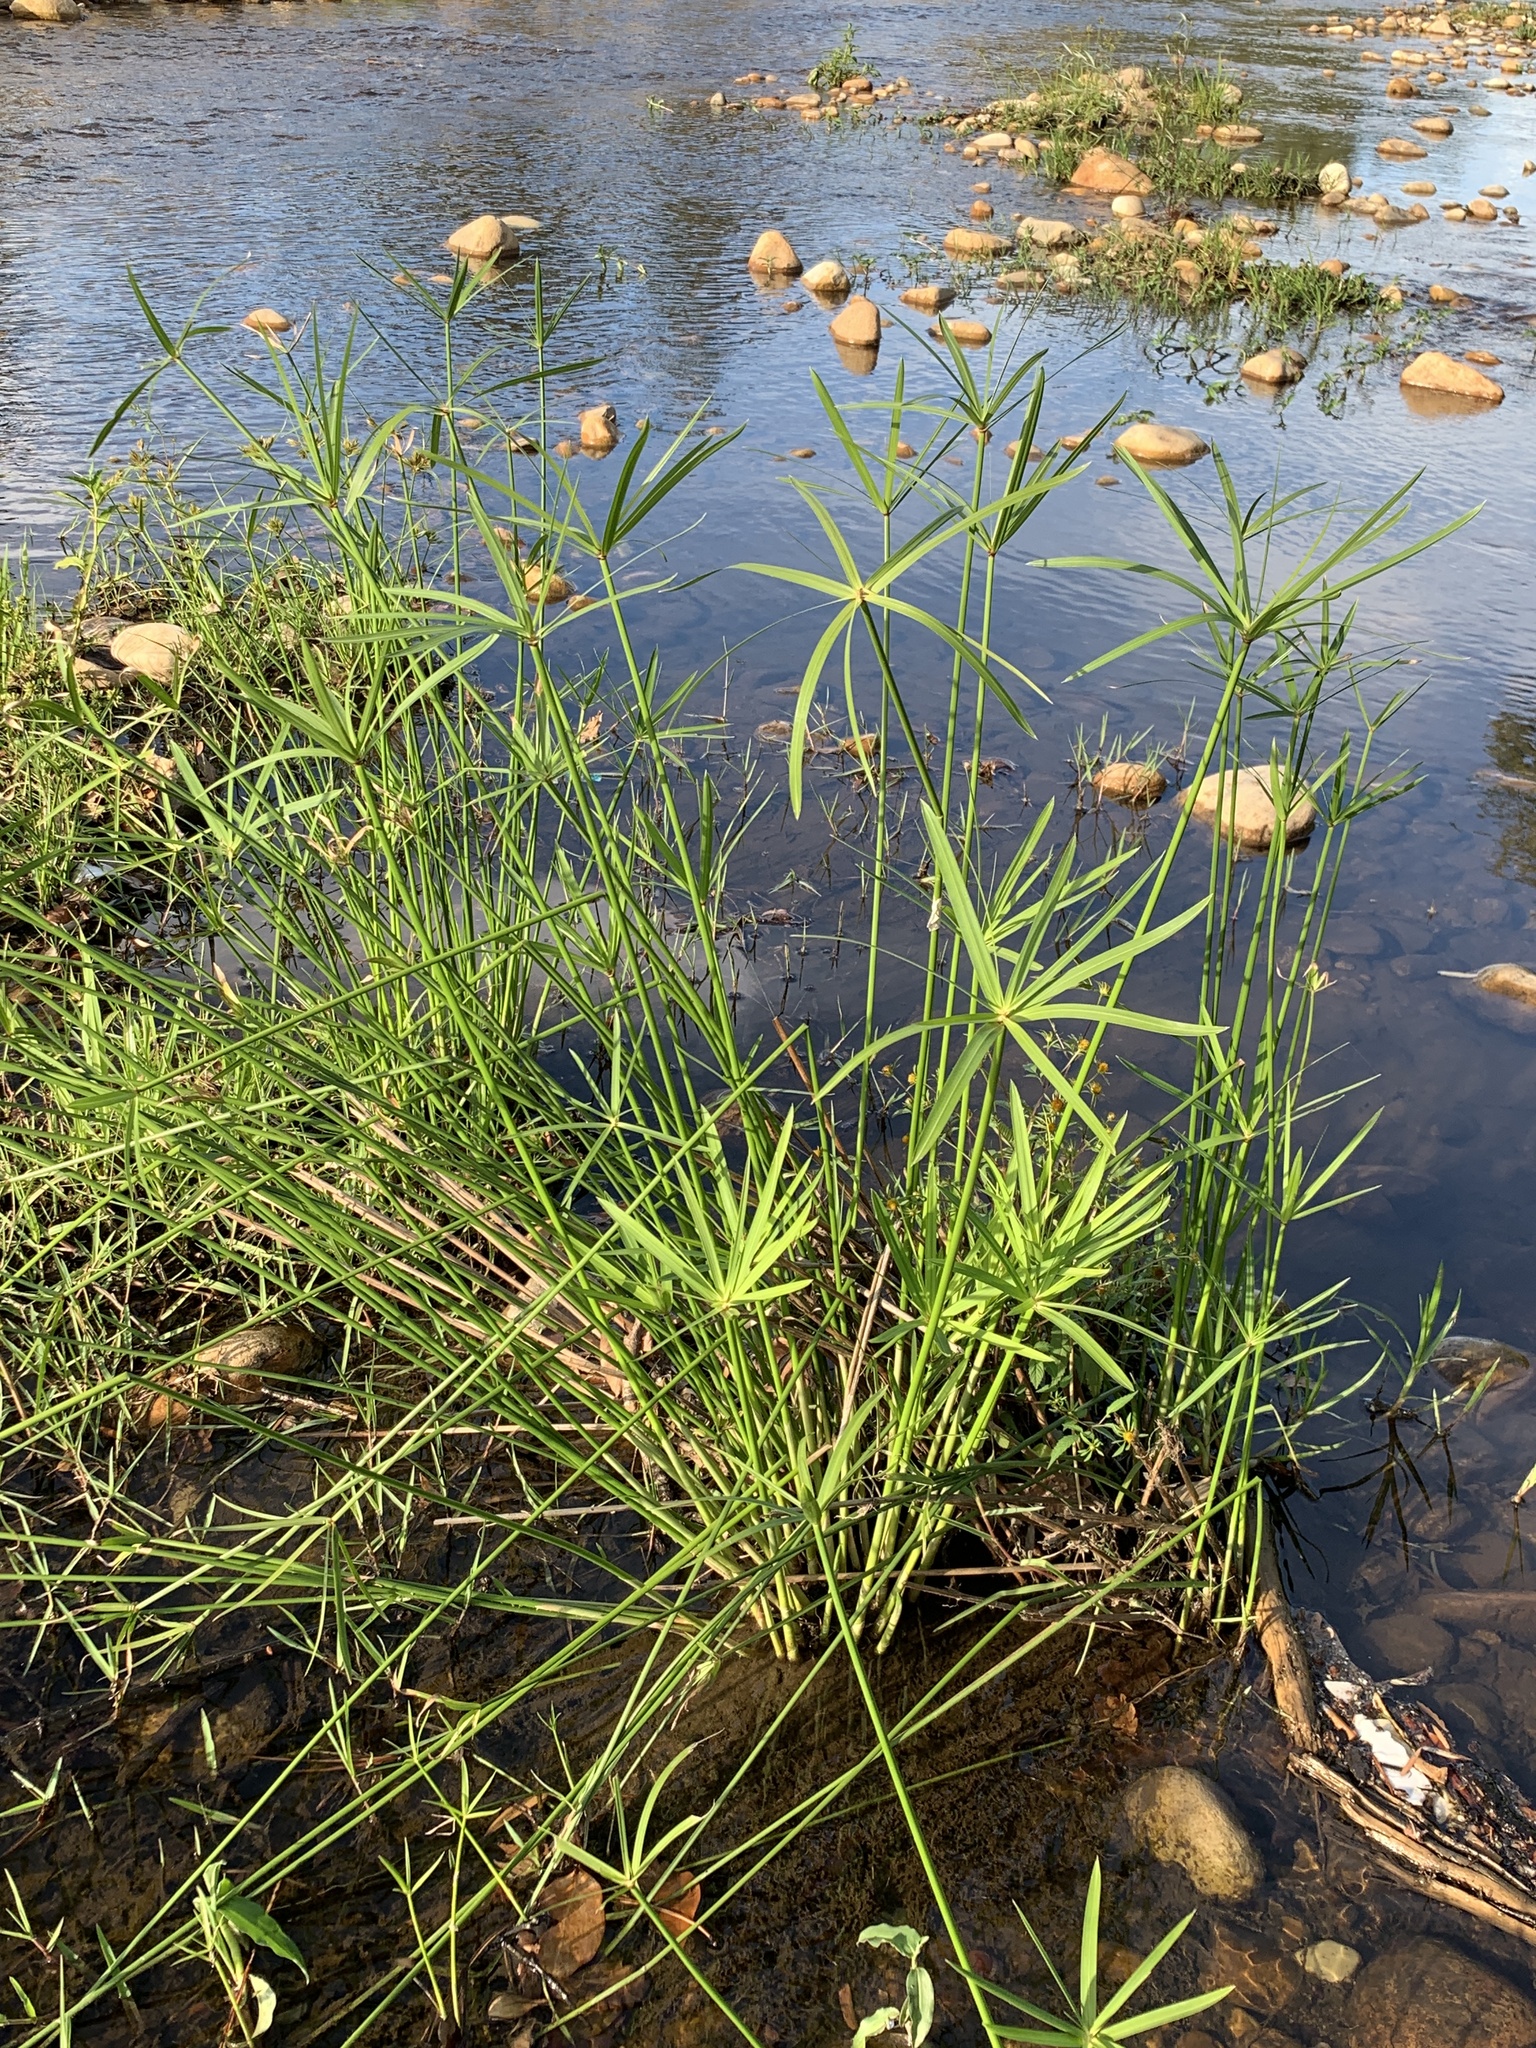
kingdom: Plantae
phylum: Tracheophyta
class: Liliopsida
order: Poales
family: Cyperaceae
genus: Cyperus
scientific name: Cyperus textilis
